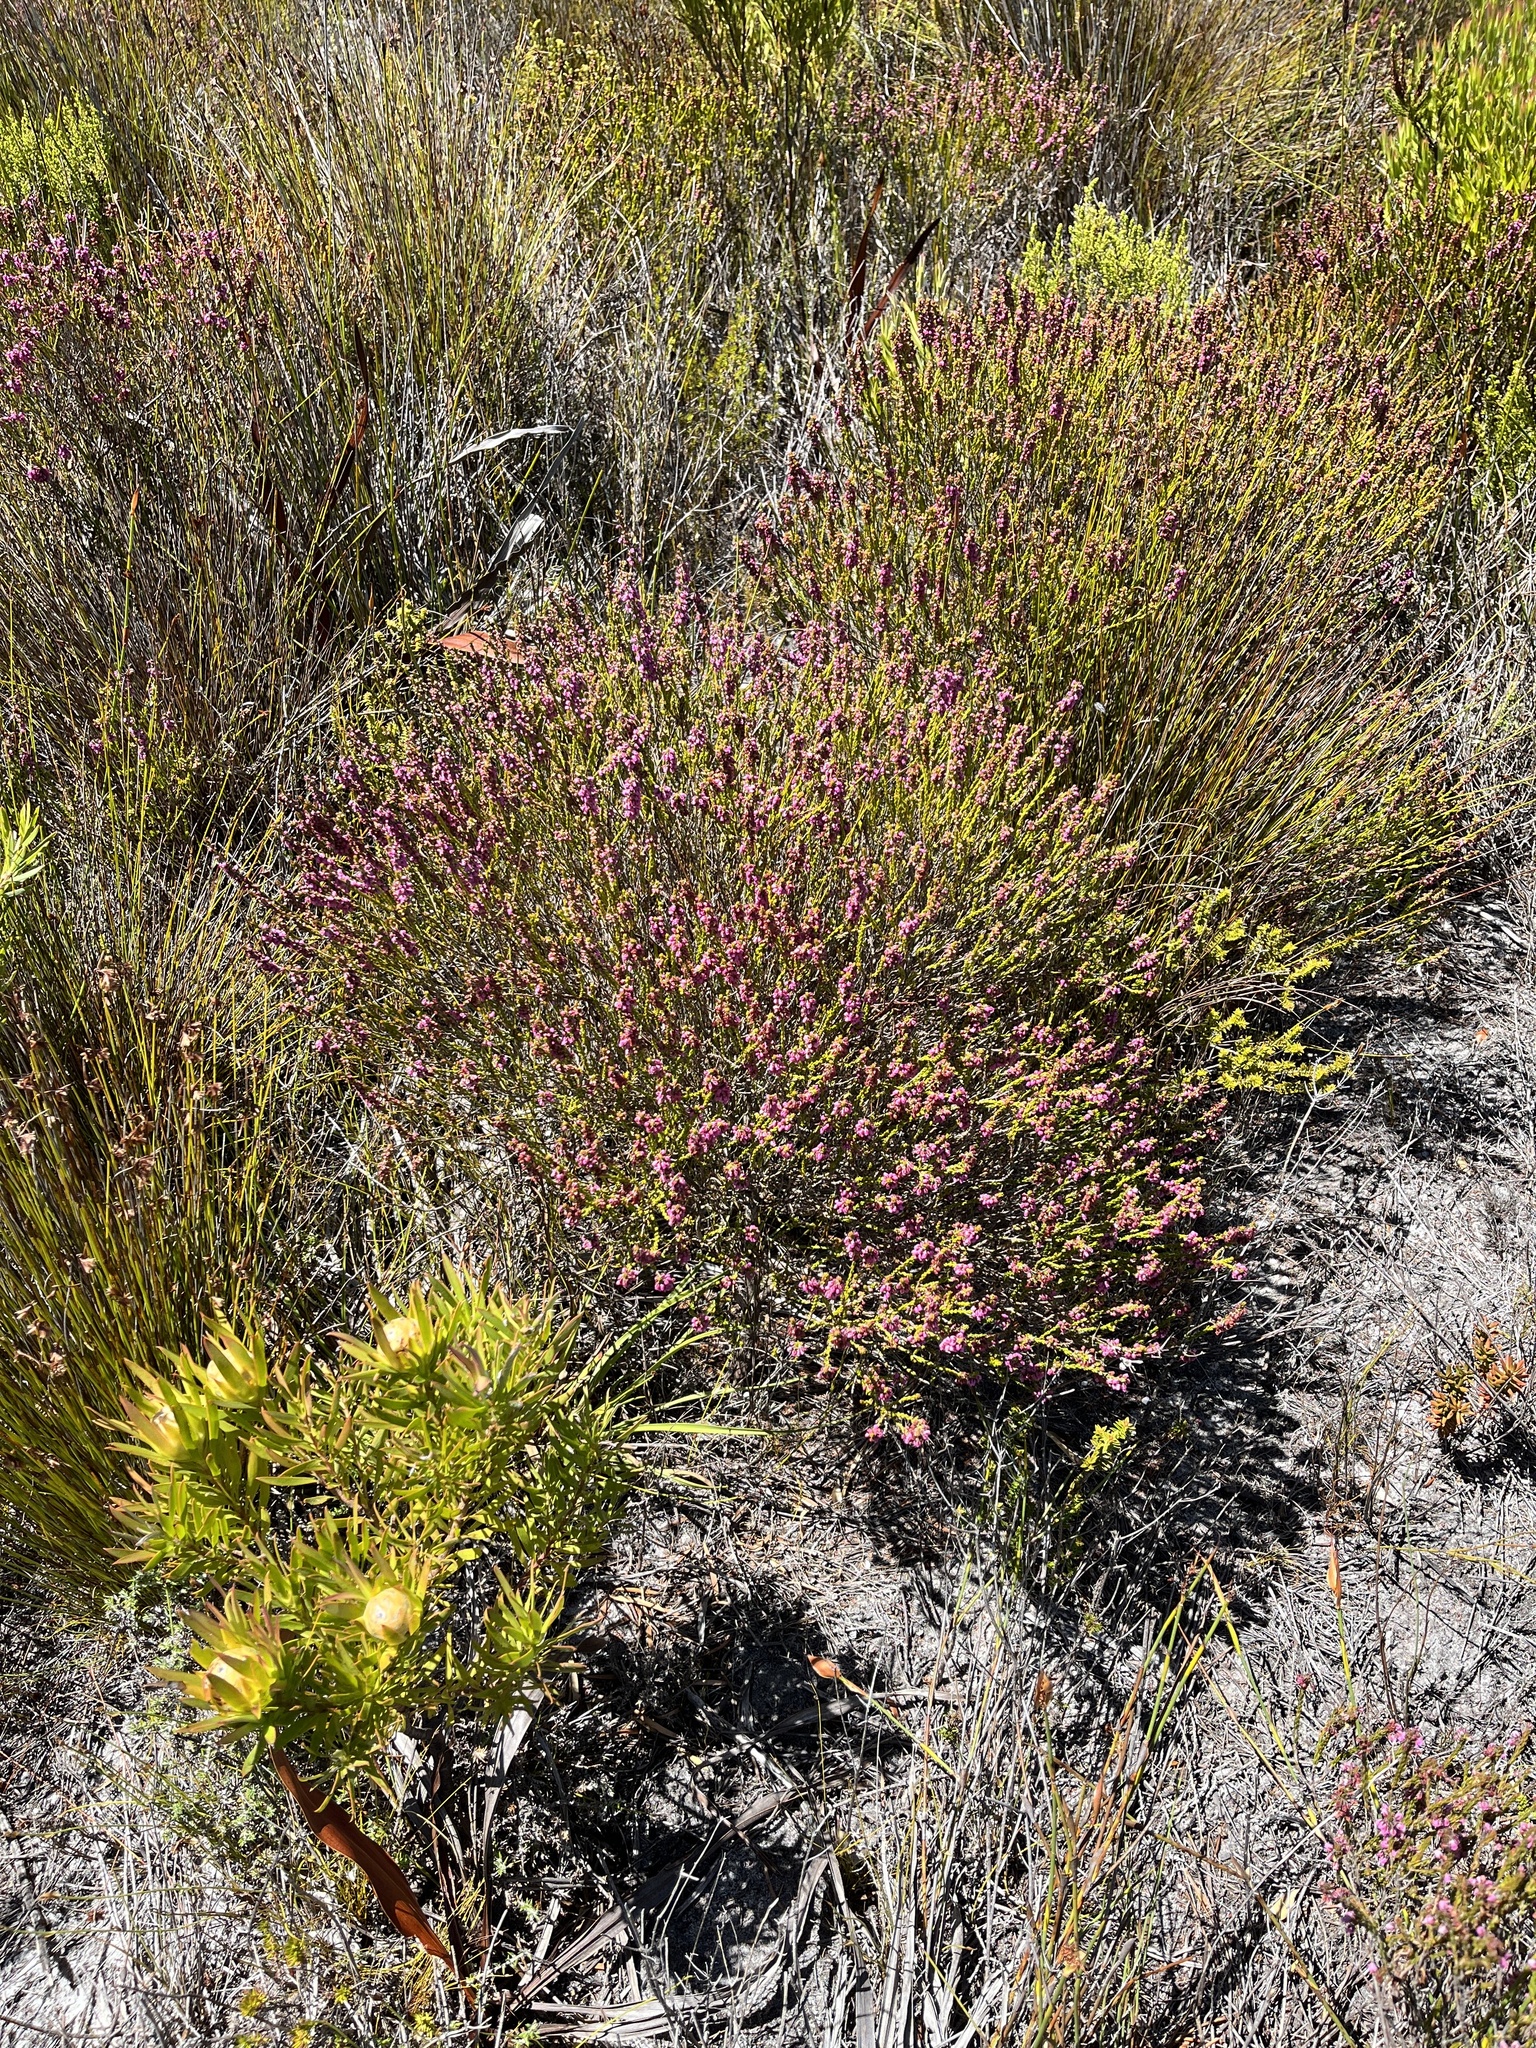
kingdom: Plantae
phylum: Tracheophyta
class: Magnoliopsida
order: Ericales
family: Ericaceae
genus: Erica
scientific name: Erica pulchella
